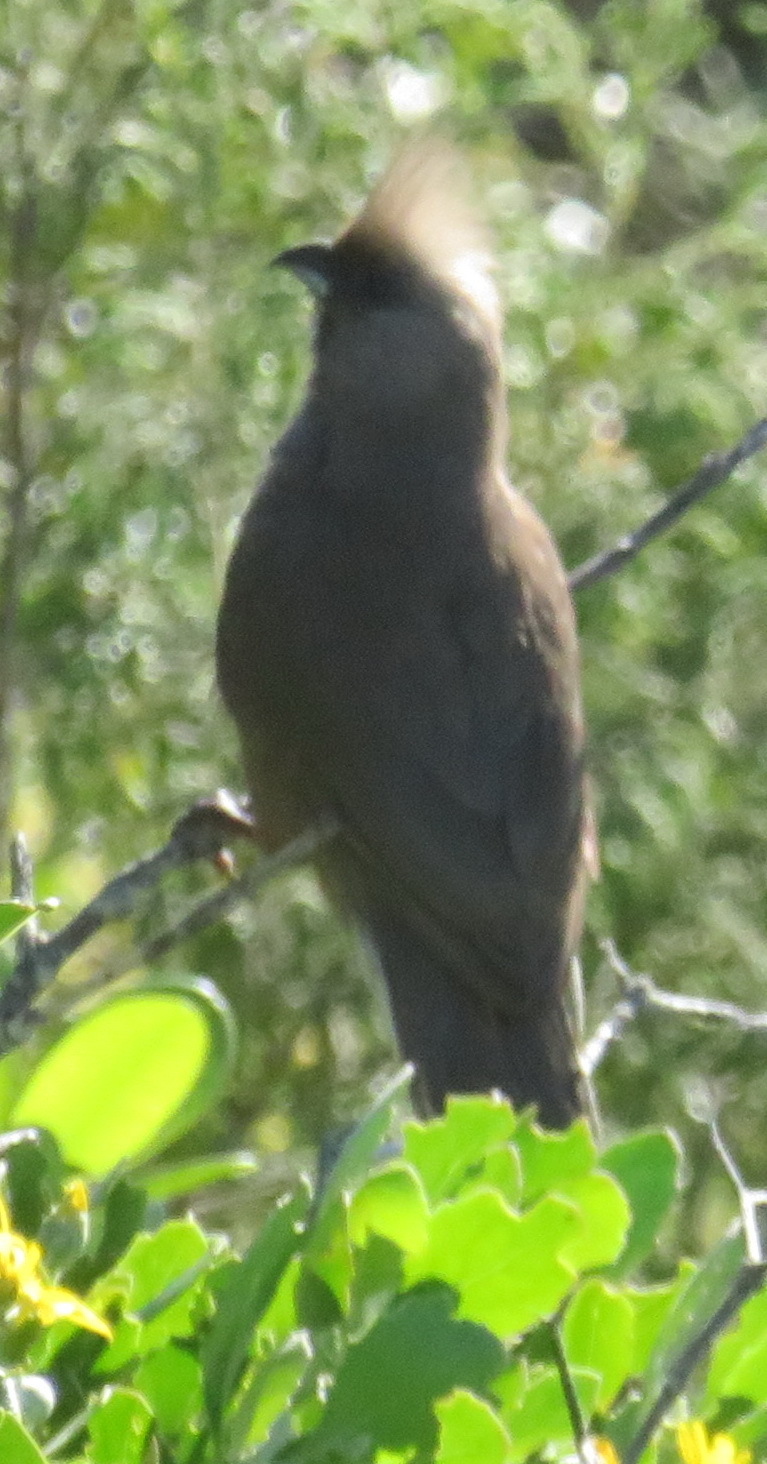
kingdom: Animalia
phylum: Chordata
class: Aves
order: Coliiformes
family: Coliidae
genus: Colius
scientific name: Colius striatus
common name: Speckled mousebird
